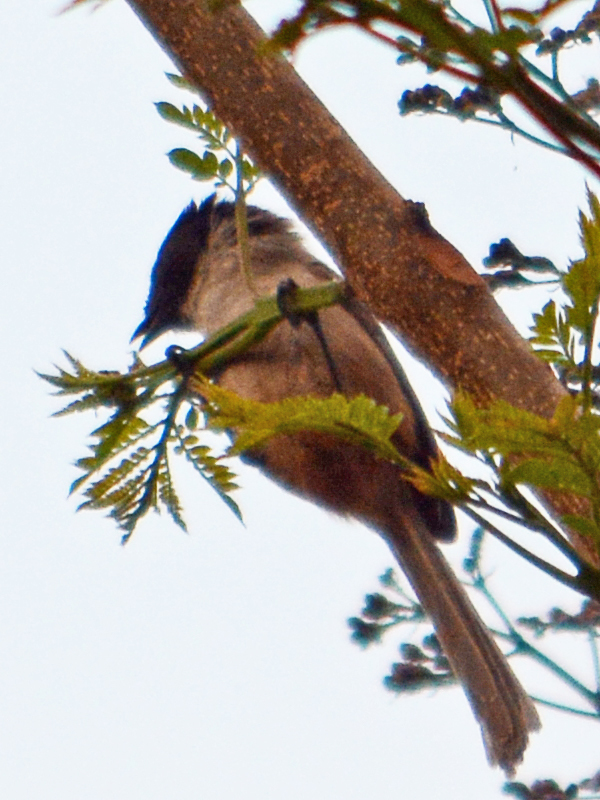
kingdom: Animalia
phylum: Chordata
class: Aves
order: Passeriformes
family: Aegithalidae
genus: Psaltriparus
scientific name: Psaltriparus minimus
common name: American bushtit
